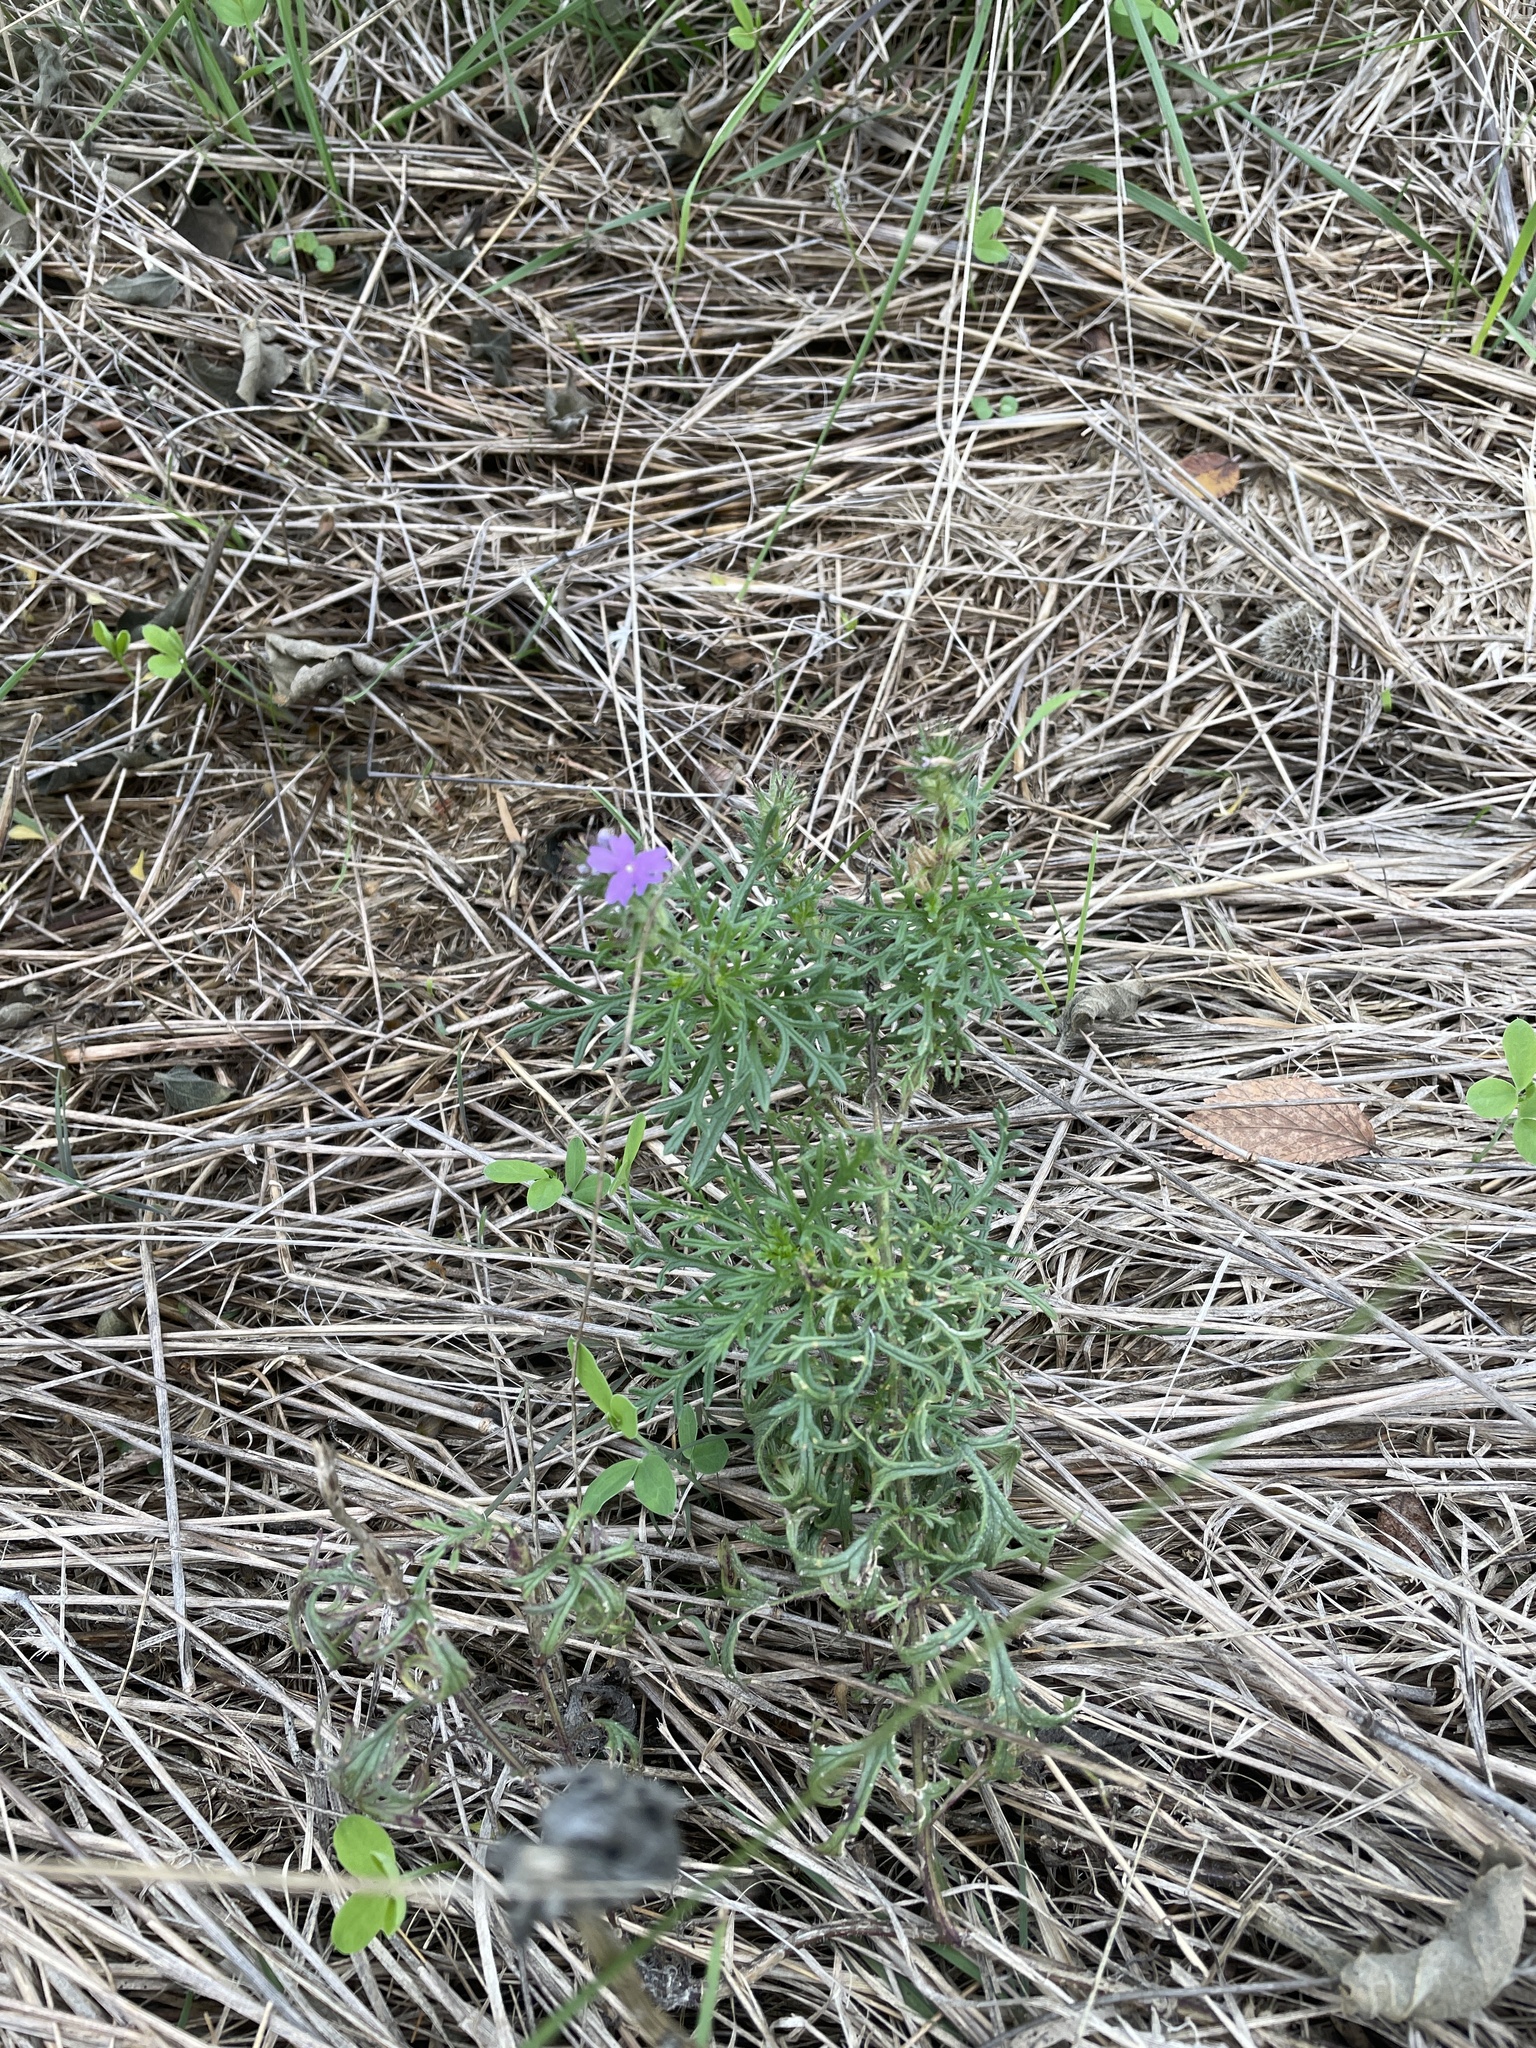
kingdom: Plantae
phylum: Tracheophyta
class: Magnoliopsida
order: Lamiales
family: Verbenaceae
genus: Verbena
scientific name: Verbena bipinnatifida
